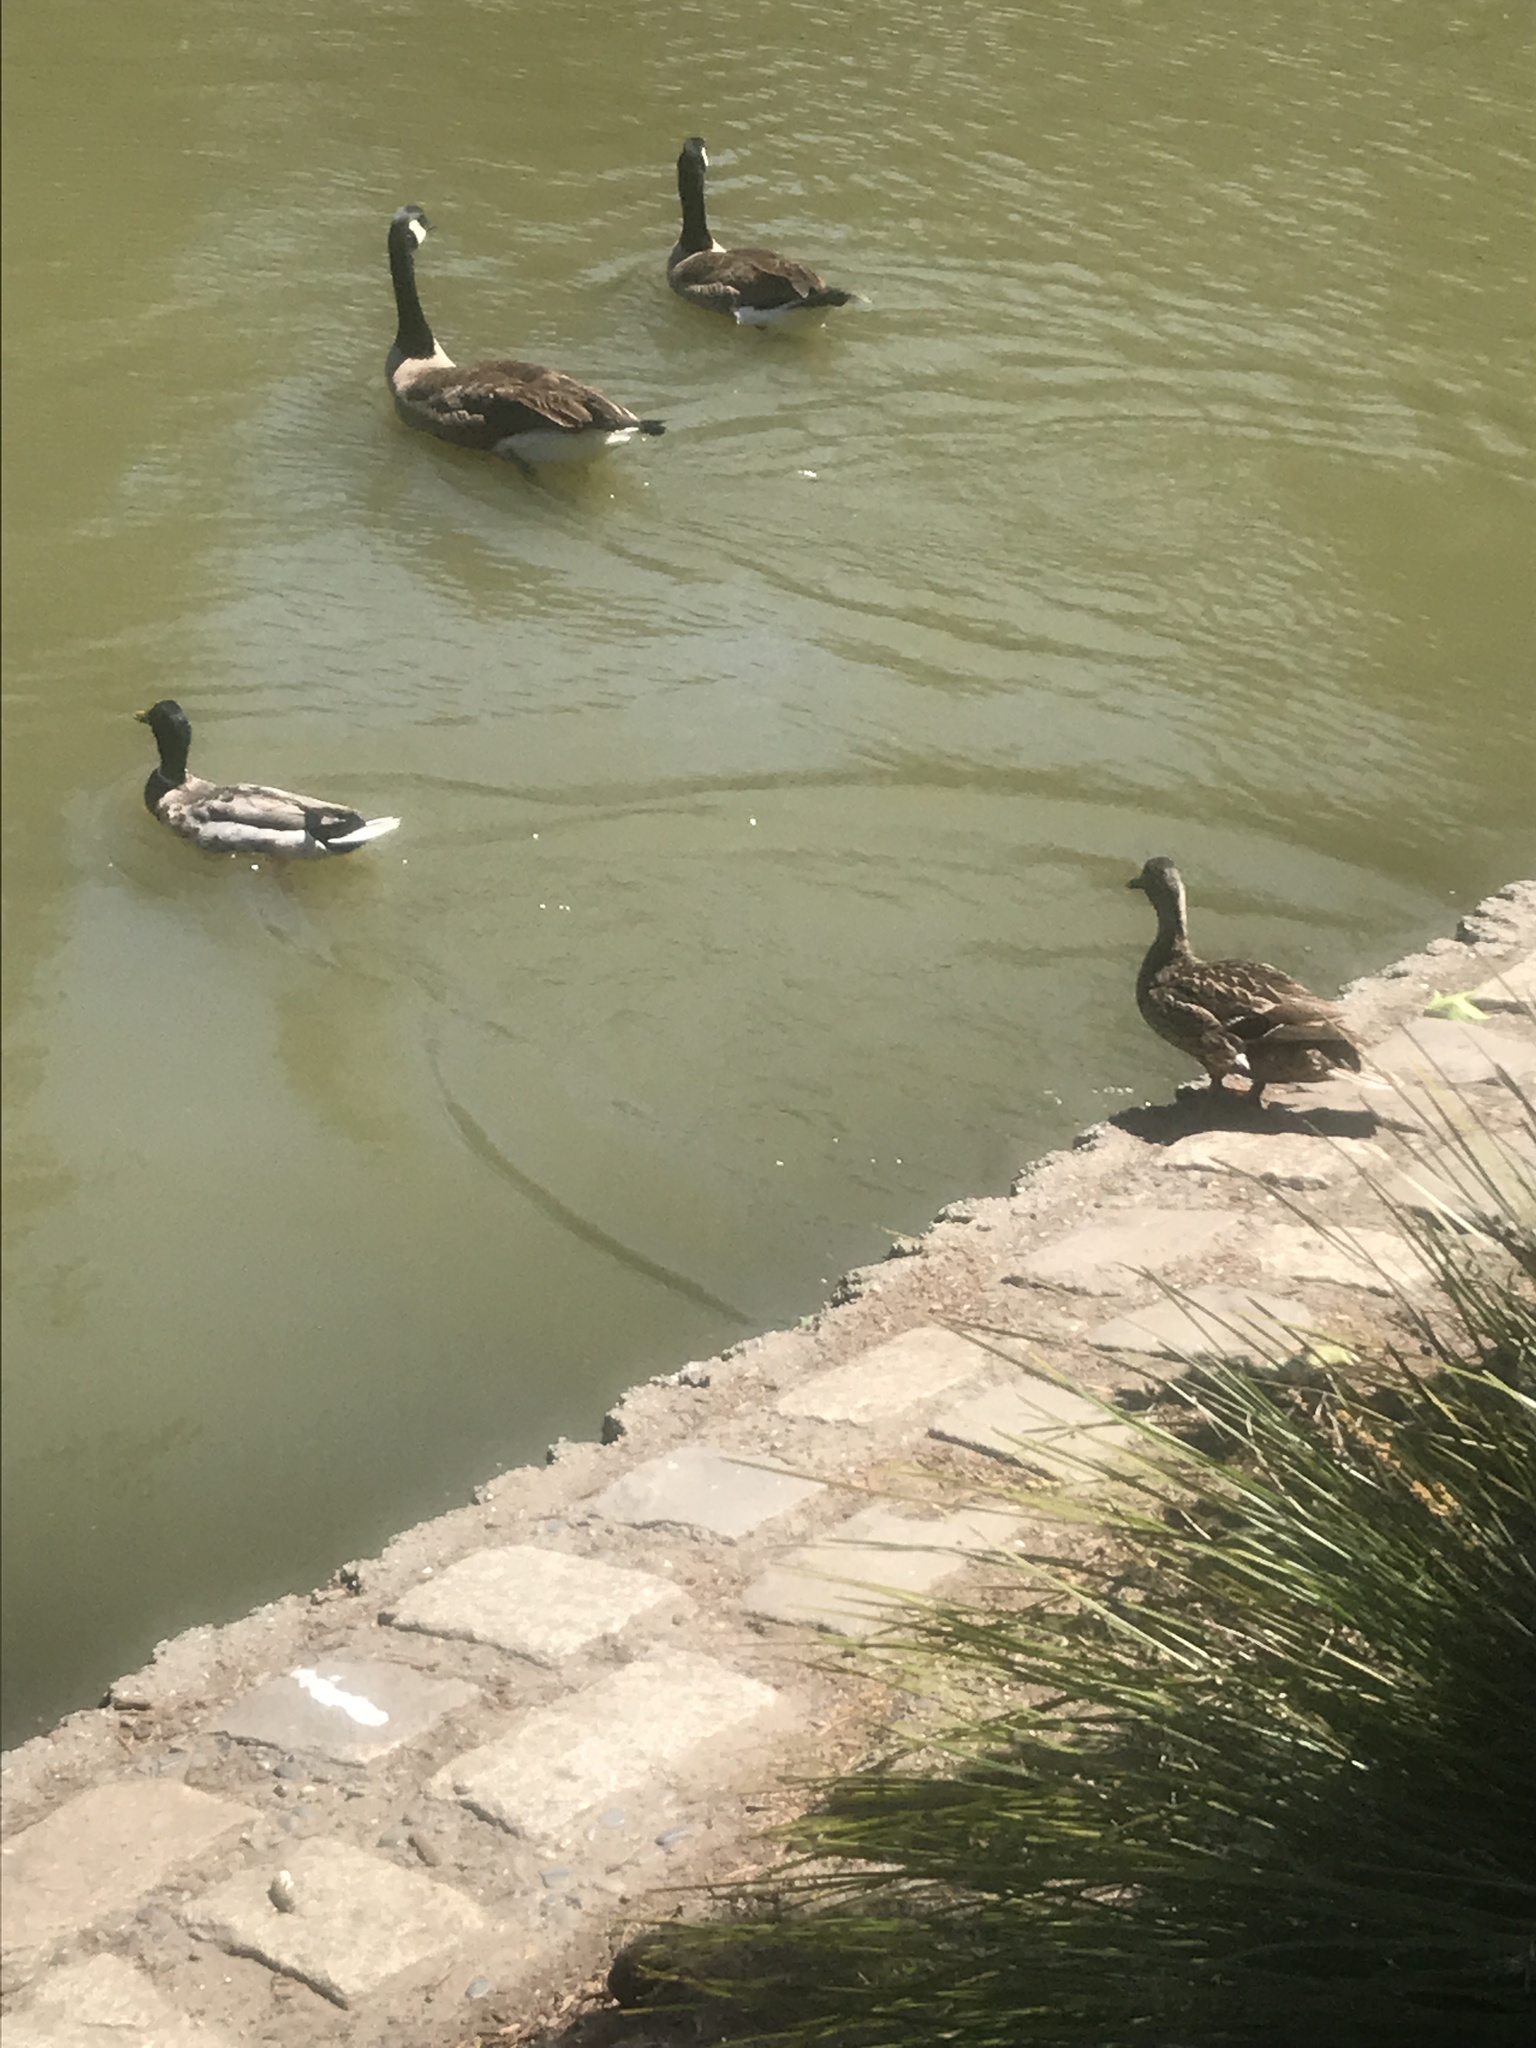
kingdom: Animalia
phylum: Chordata
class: Aves
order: Anseriformes
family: Anatidae
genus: Anas
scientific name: Anas platyrhynchos
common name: Mallard
